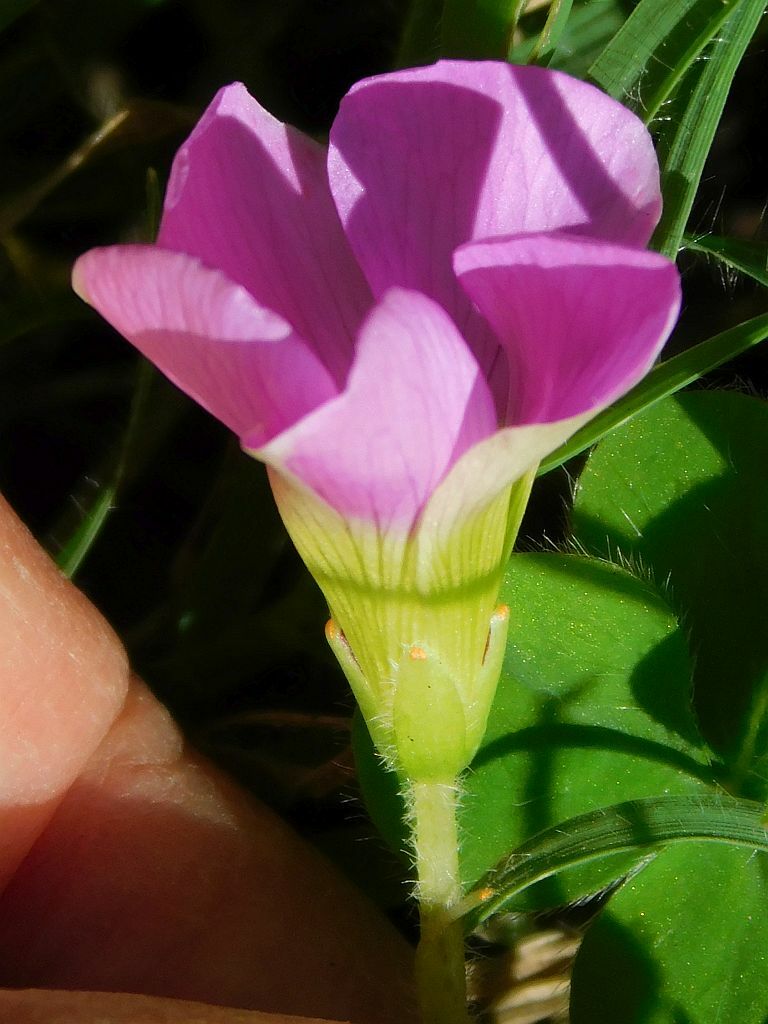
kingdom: Plantae
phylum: Tracheophyta
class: Magnoliopsida
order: Oxalidales
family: Oxalidaceae
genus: Oxalis
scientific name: Oxalis zeekoevleyensis
